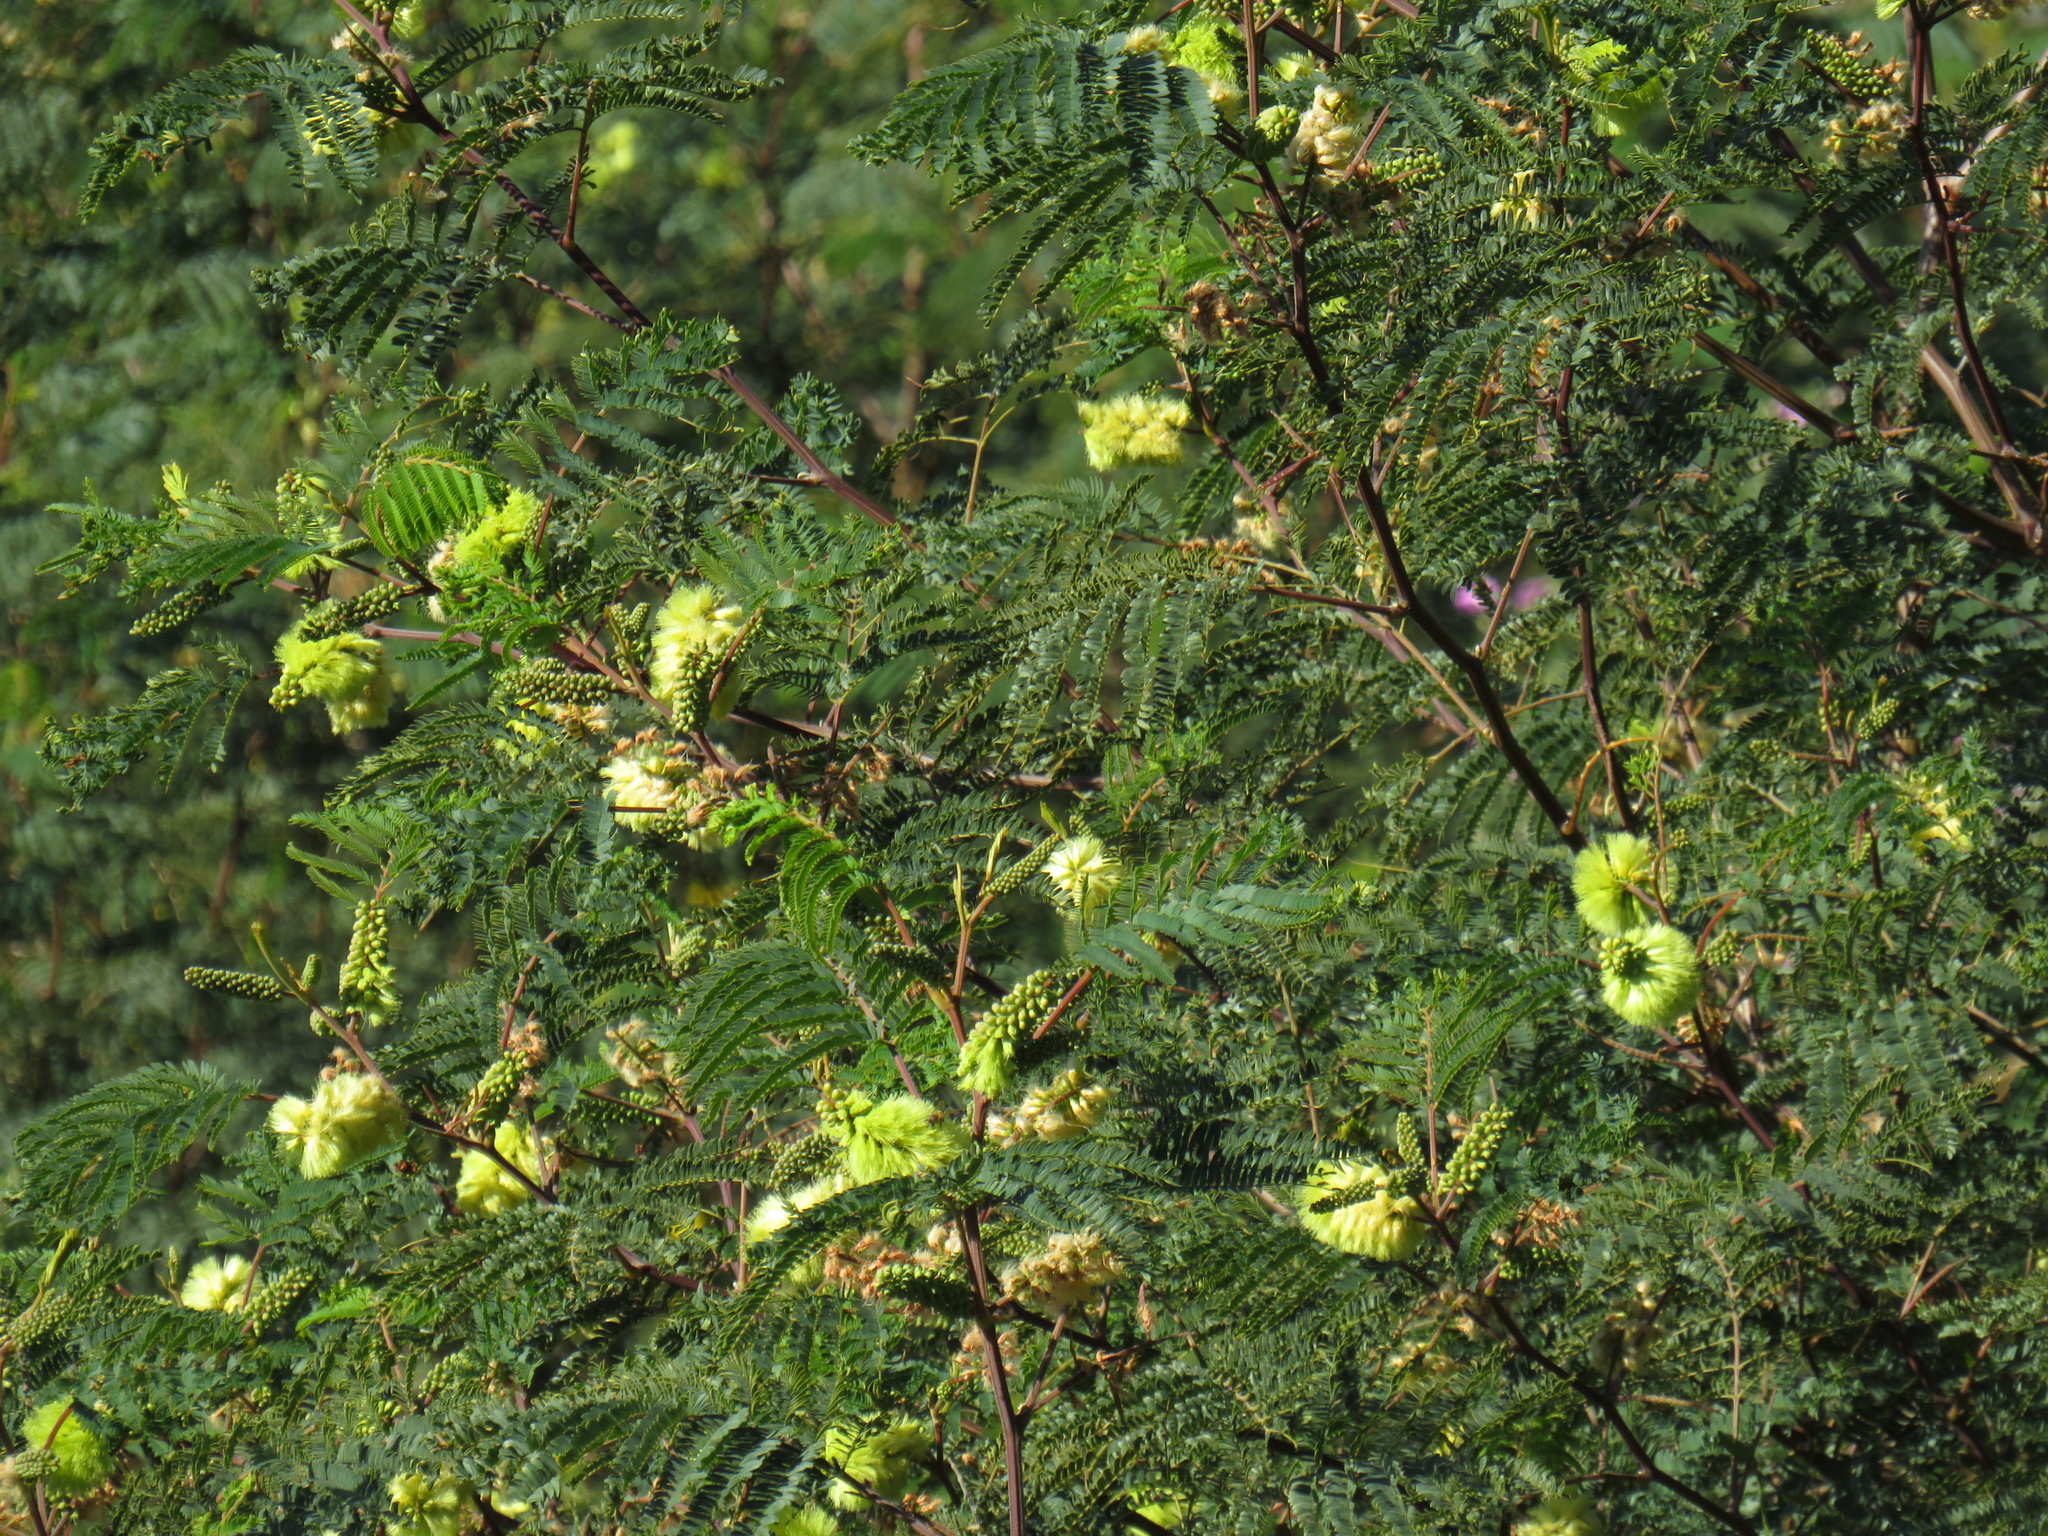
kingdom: Plantae
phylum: Tracheophyta
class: Magnoliopsida
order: Fabales
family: Fabaceae
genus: Paraserianthes
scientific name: Paraserianthes lophantha
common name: Plume albizia
